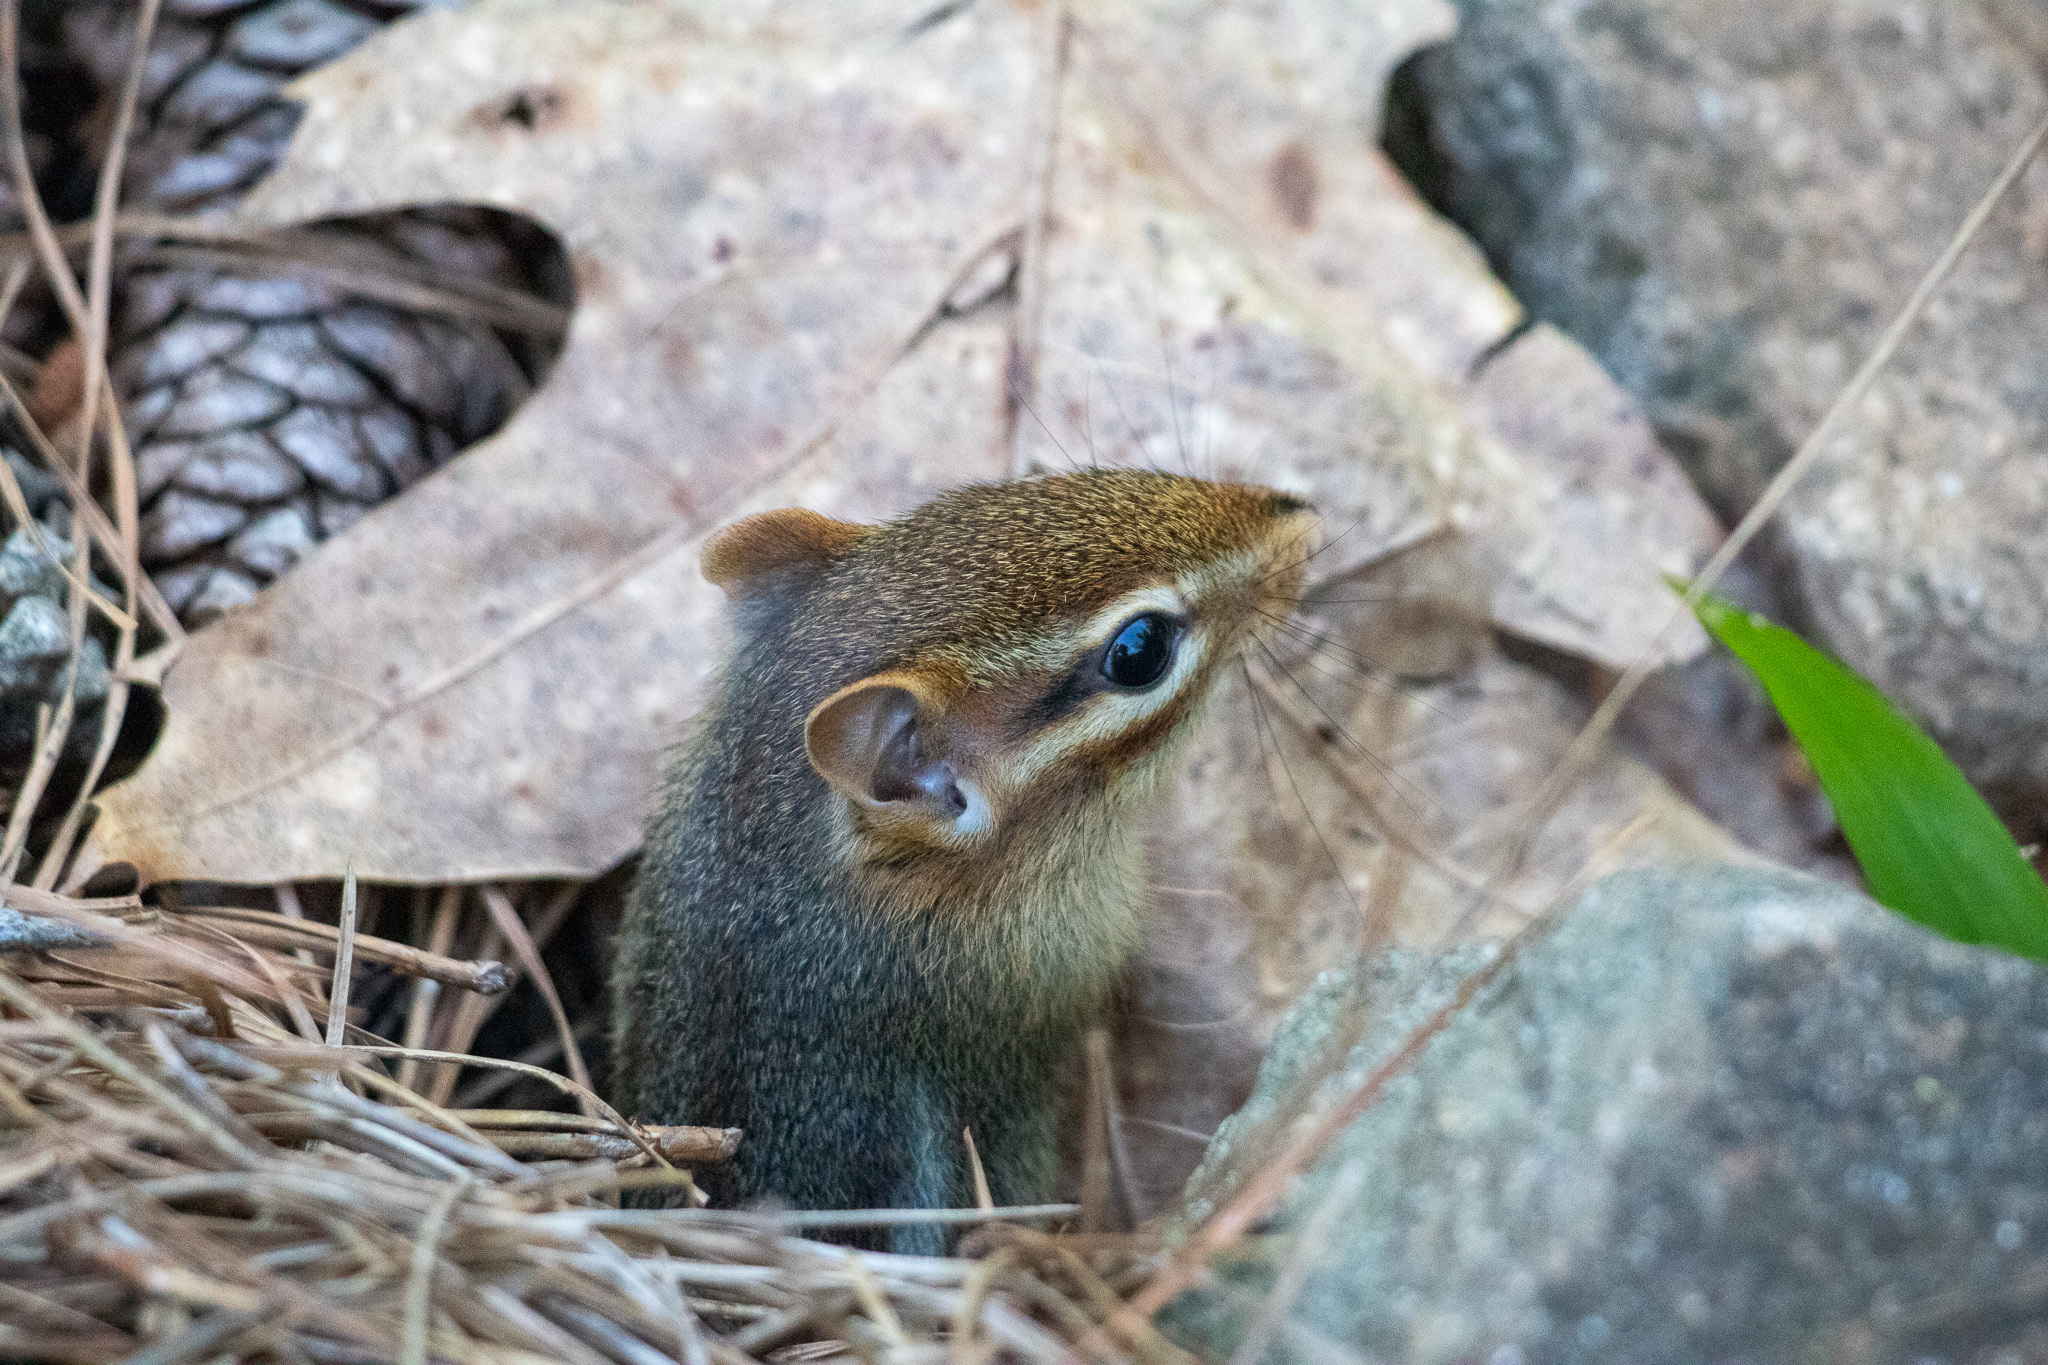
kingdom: Animalia
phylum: Chordata
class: Mammalia
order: Rodentia
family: Sciuridae
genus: Tamias
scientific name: Tamias striatus
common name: Eastern chipmunk
